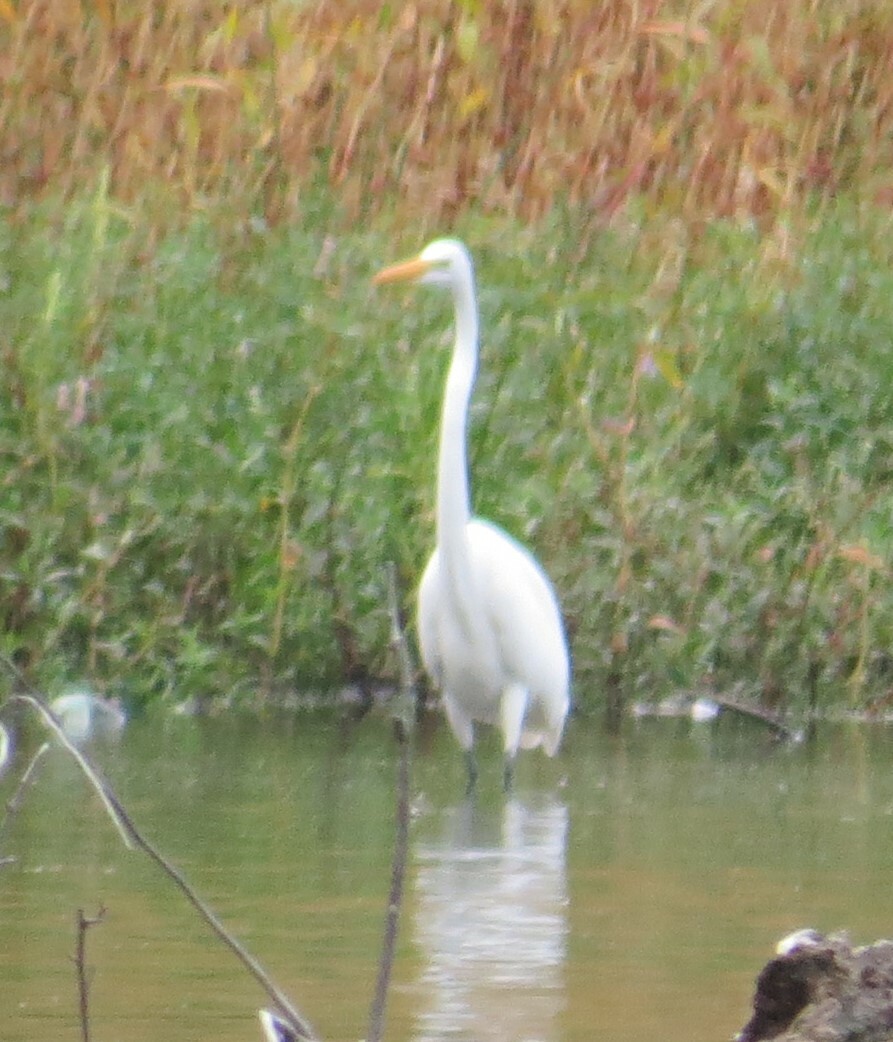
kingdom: Animalia
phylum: Chordata
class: Aves
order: Pelecaniformes
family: Ardeidae
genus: Ardea
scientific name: Ardea alba
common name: Great egret
